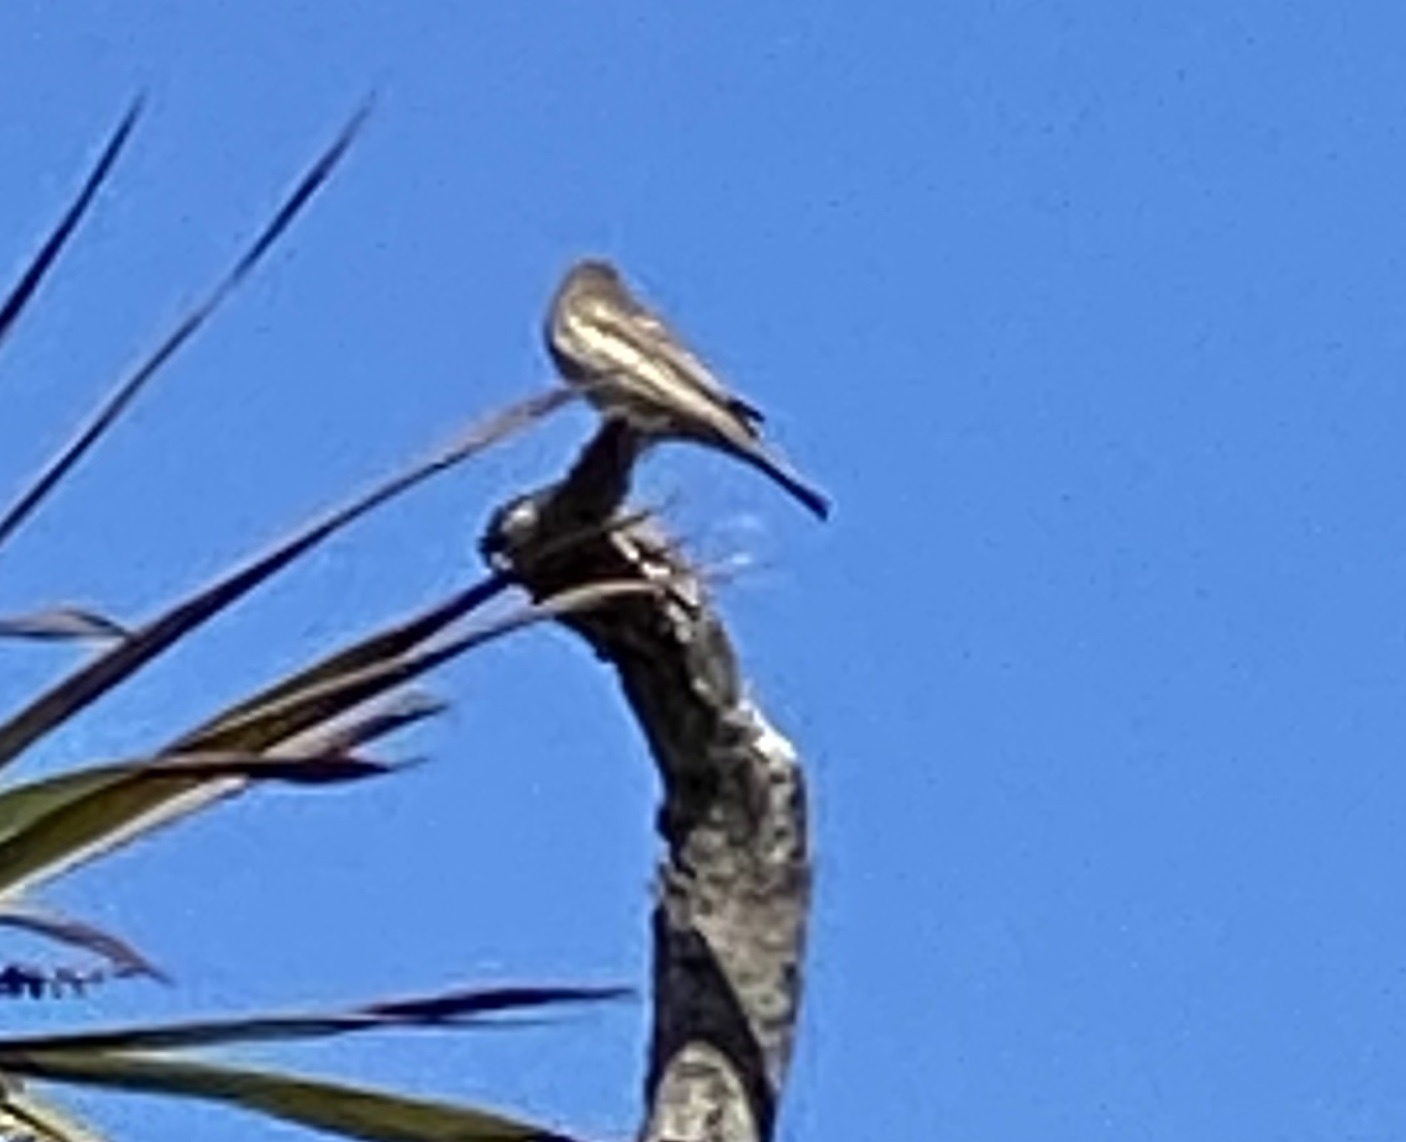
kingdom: Animalia
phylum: Chordata
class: Aves
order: Passeriformes
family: Fringillidae
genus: Haemorhous
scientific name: Haemorhous mexicanus
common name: House finch
